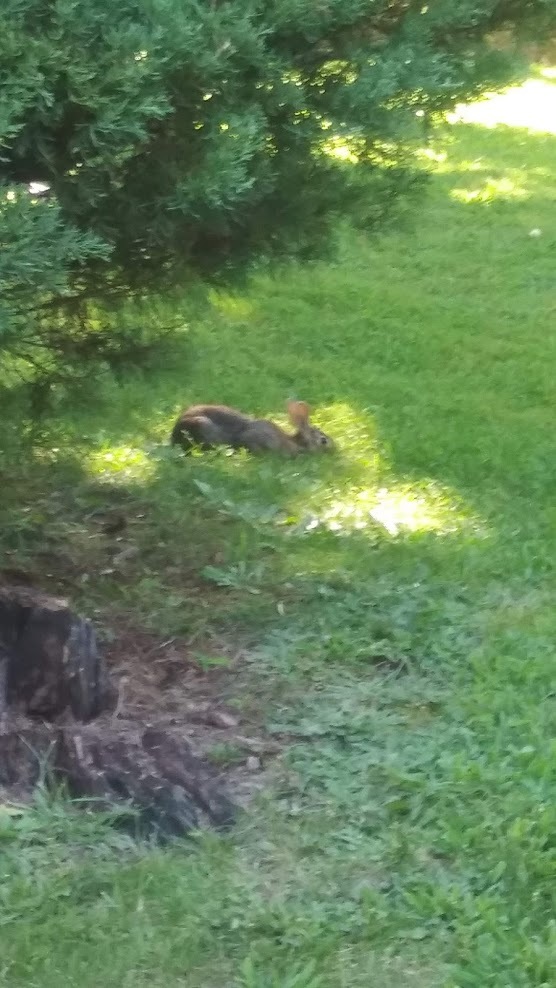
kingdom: Animalia
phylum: Chordata
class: Mammalia
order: Lagomorpha
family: Leporidae
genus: Sylvilagus
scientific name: Sylvilagus floridanus
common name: Eastern cottontail
